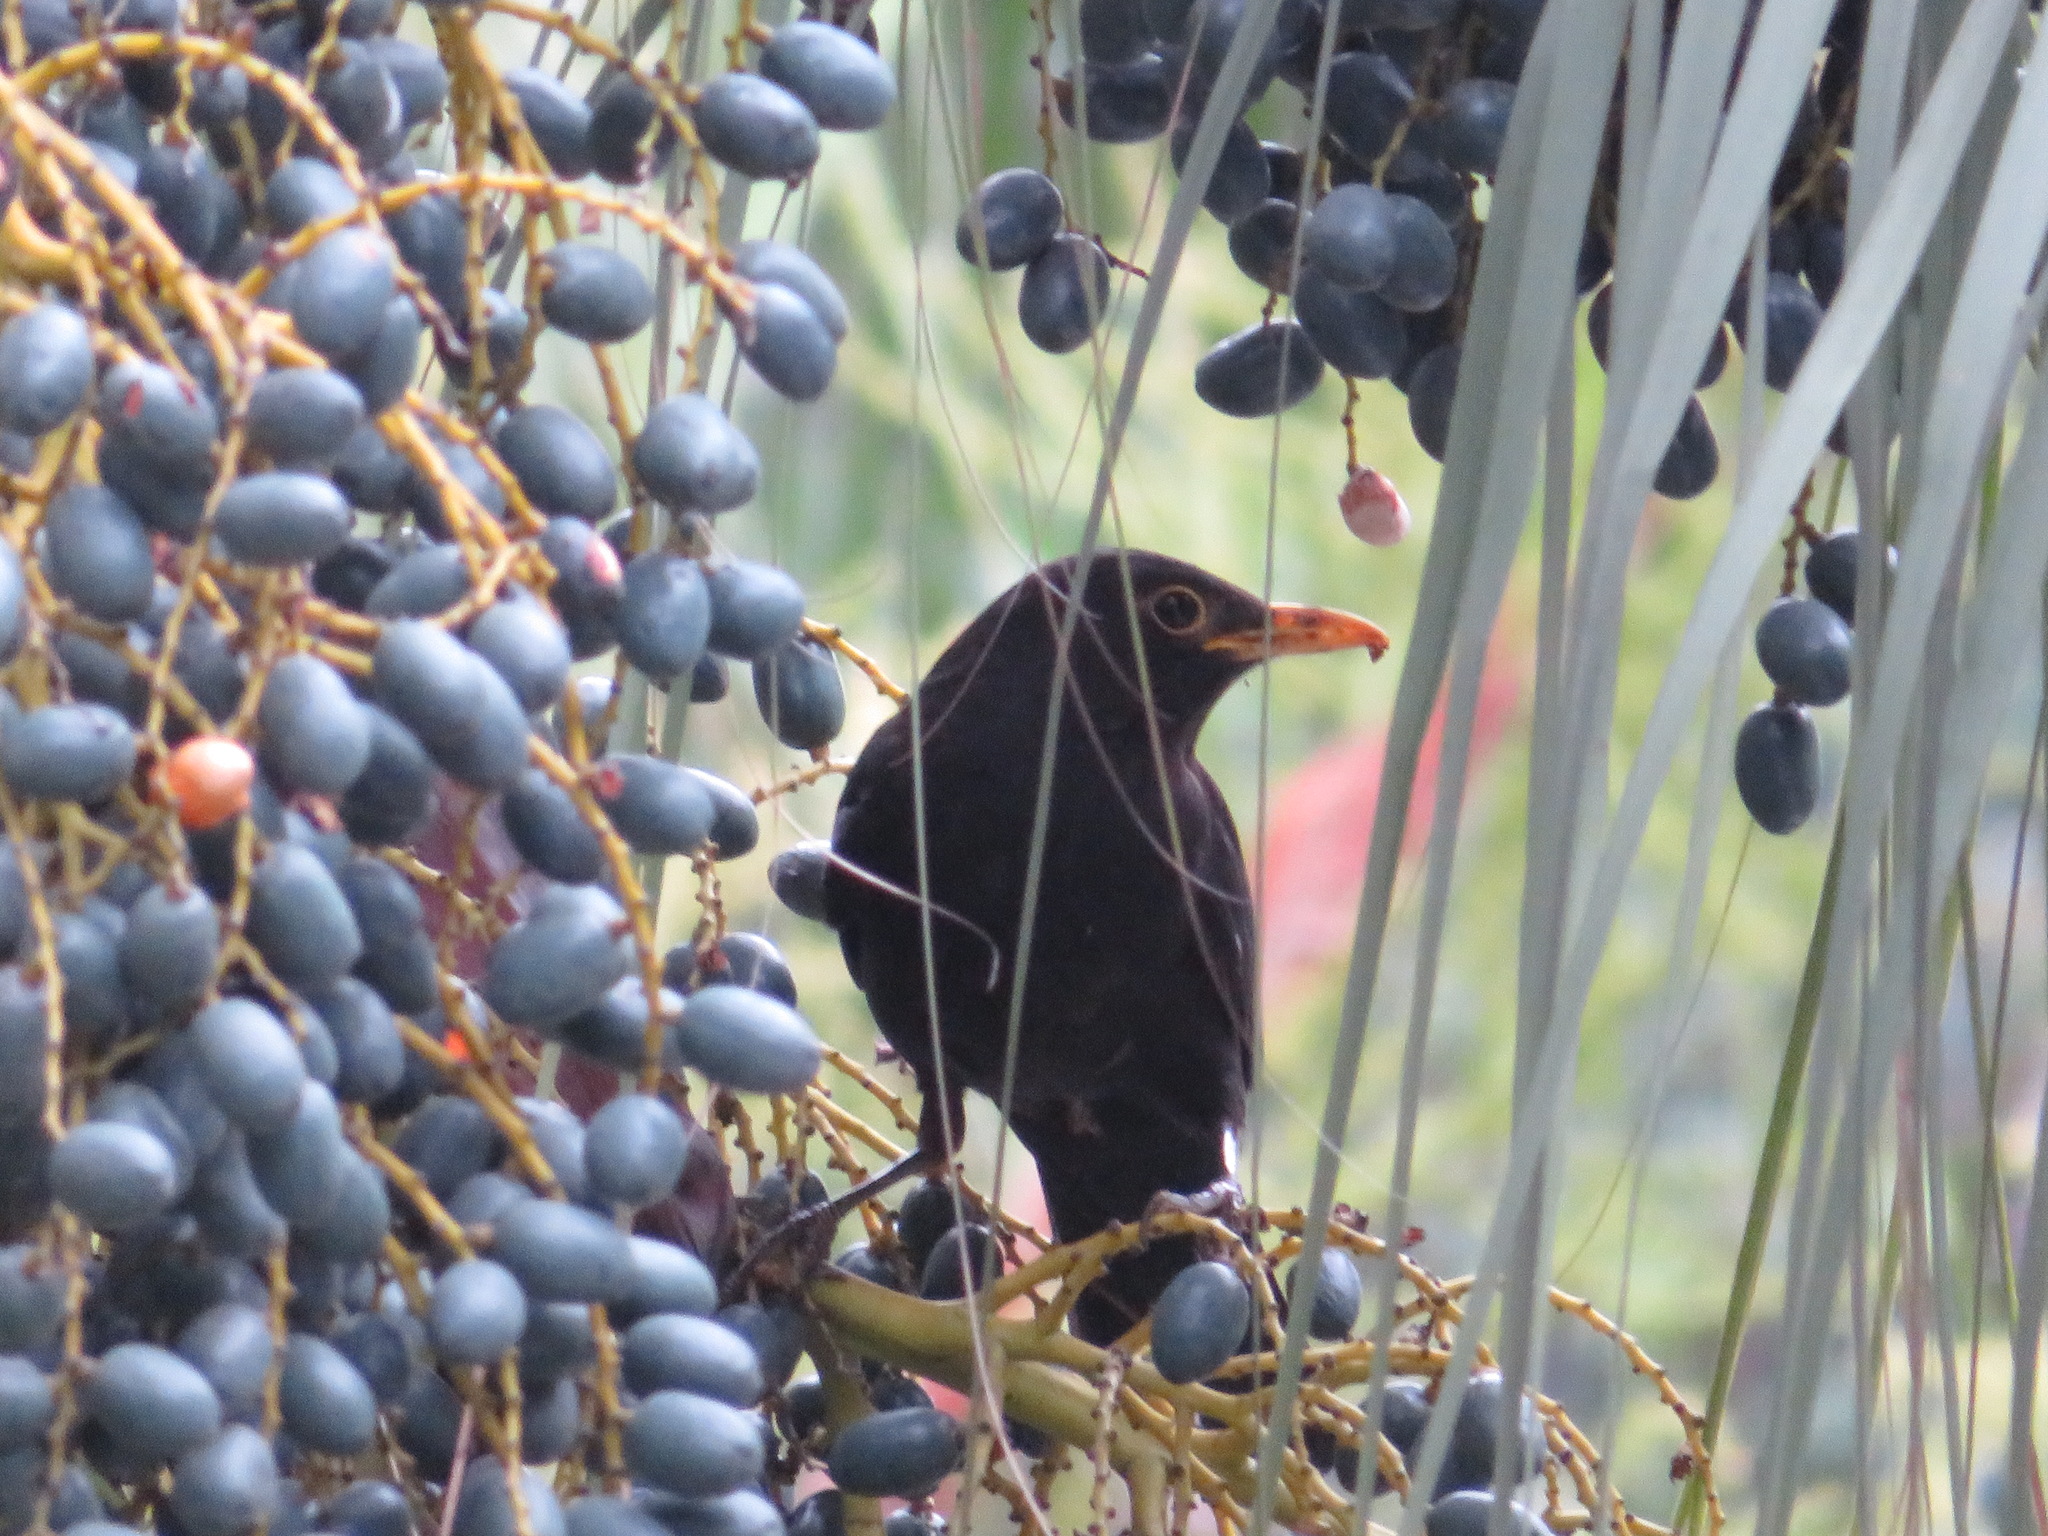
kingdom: Animalia
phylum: Chordata
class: Aves
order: Passeriformes
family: Turdidae
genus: Turdus
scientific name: Turdus mandarinus
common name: Chinese blackbird
